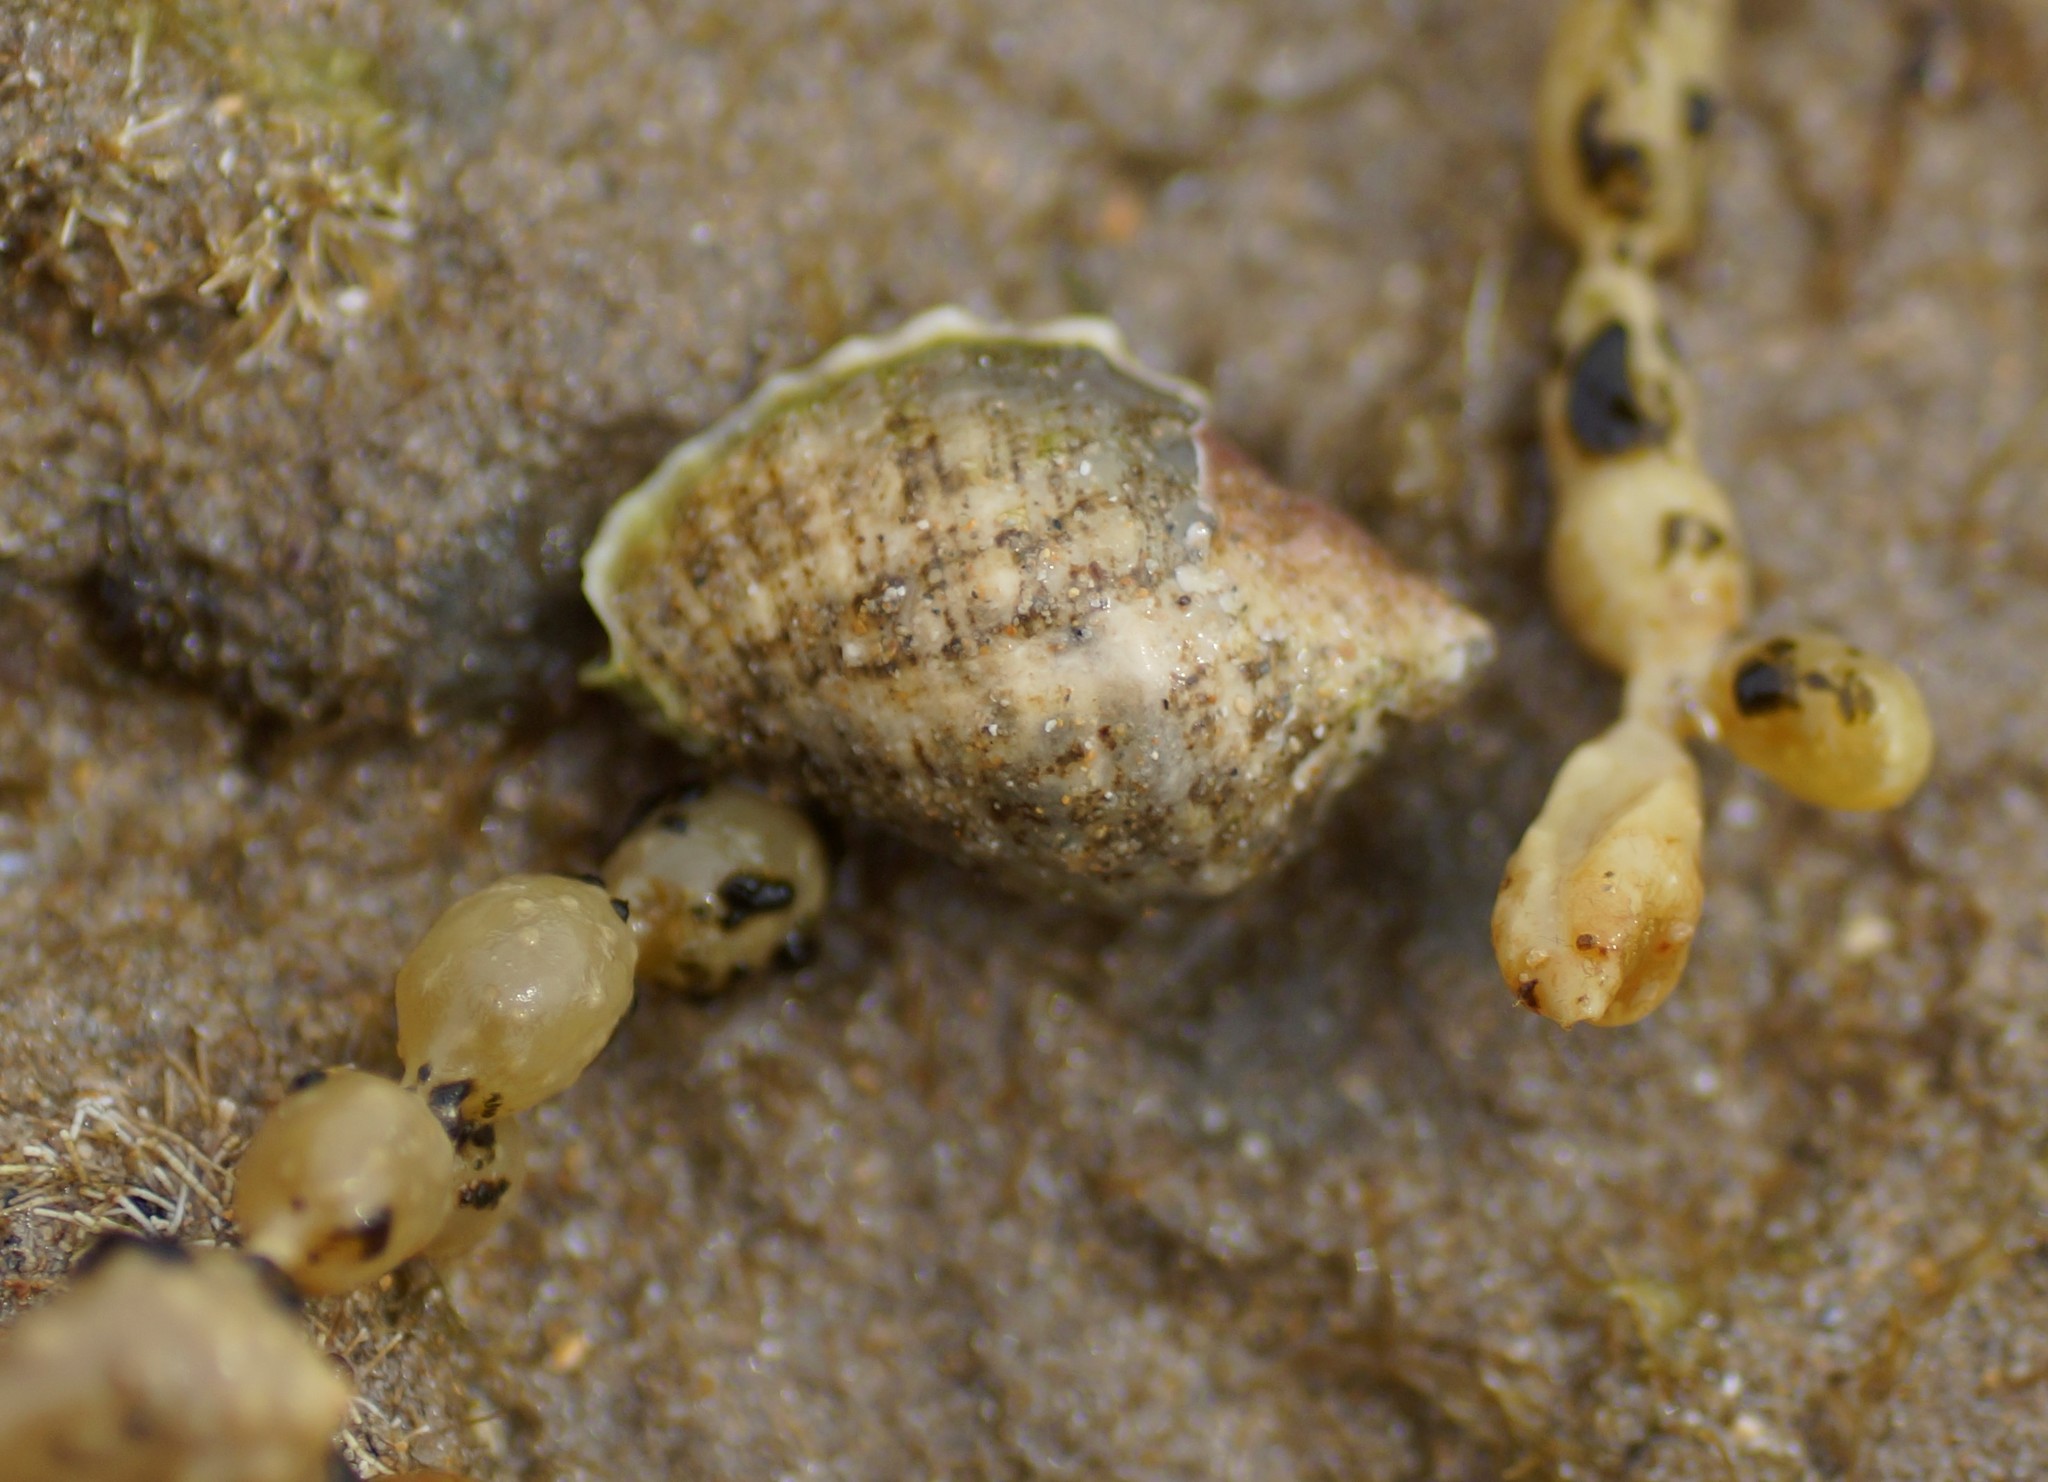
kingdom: Animalia
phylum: Mollusca
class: Gastropoda
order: Neogastropoda
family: Muricidae
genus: Dicathais
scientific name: Dicathais orbita
